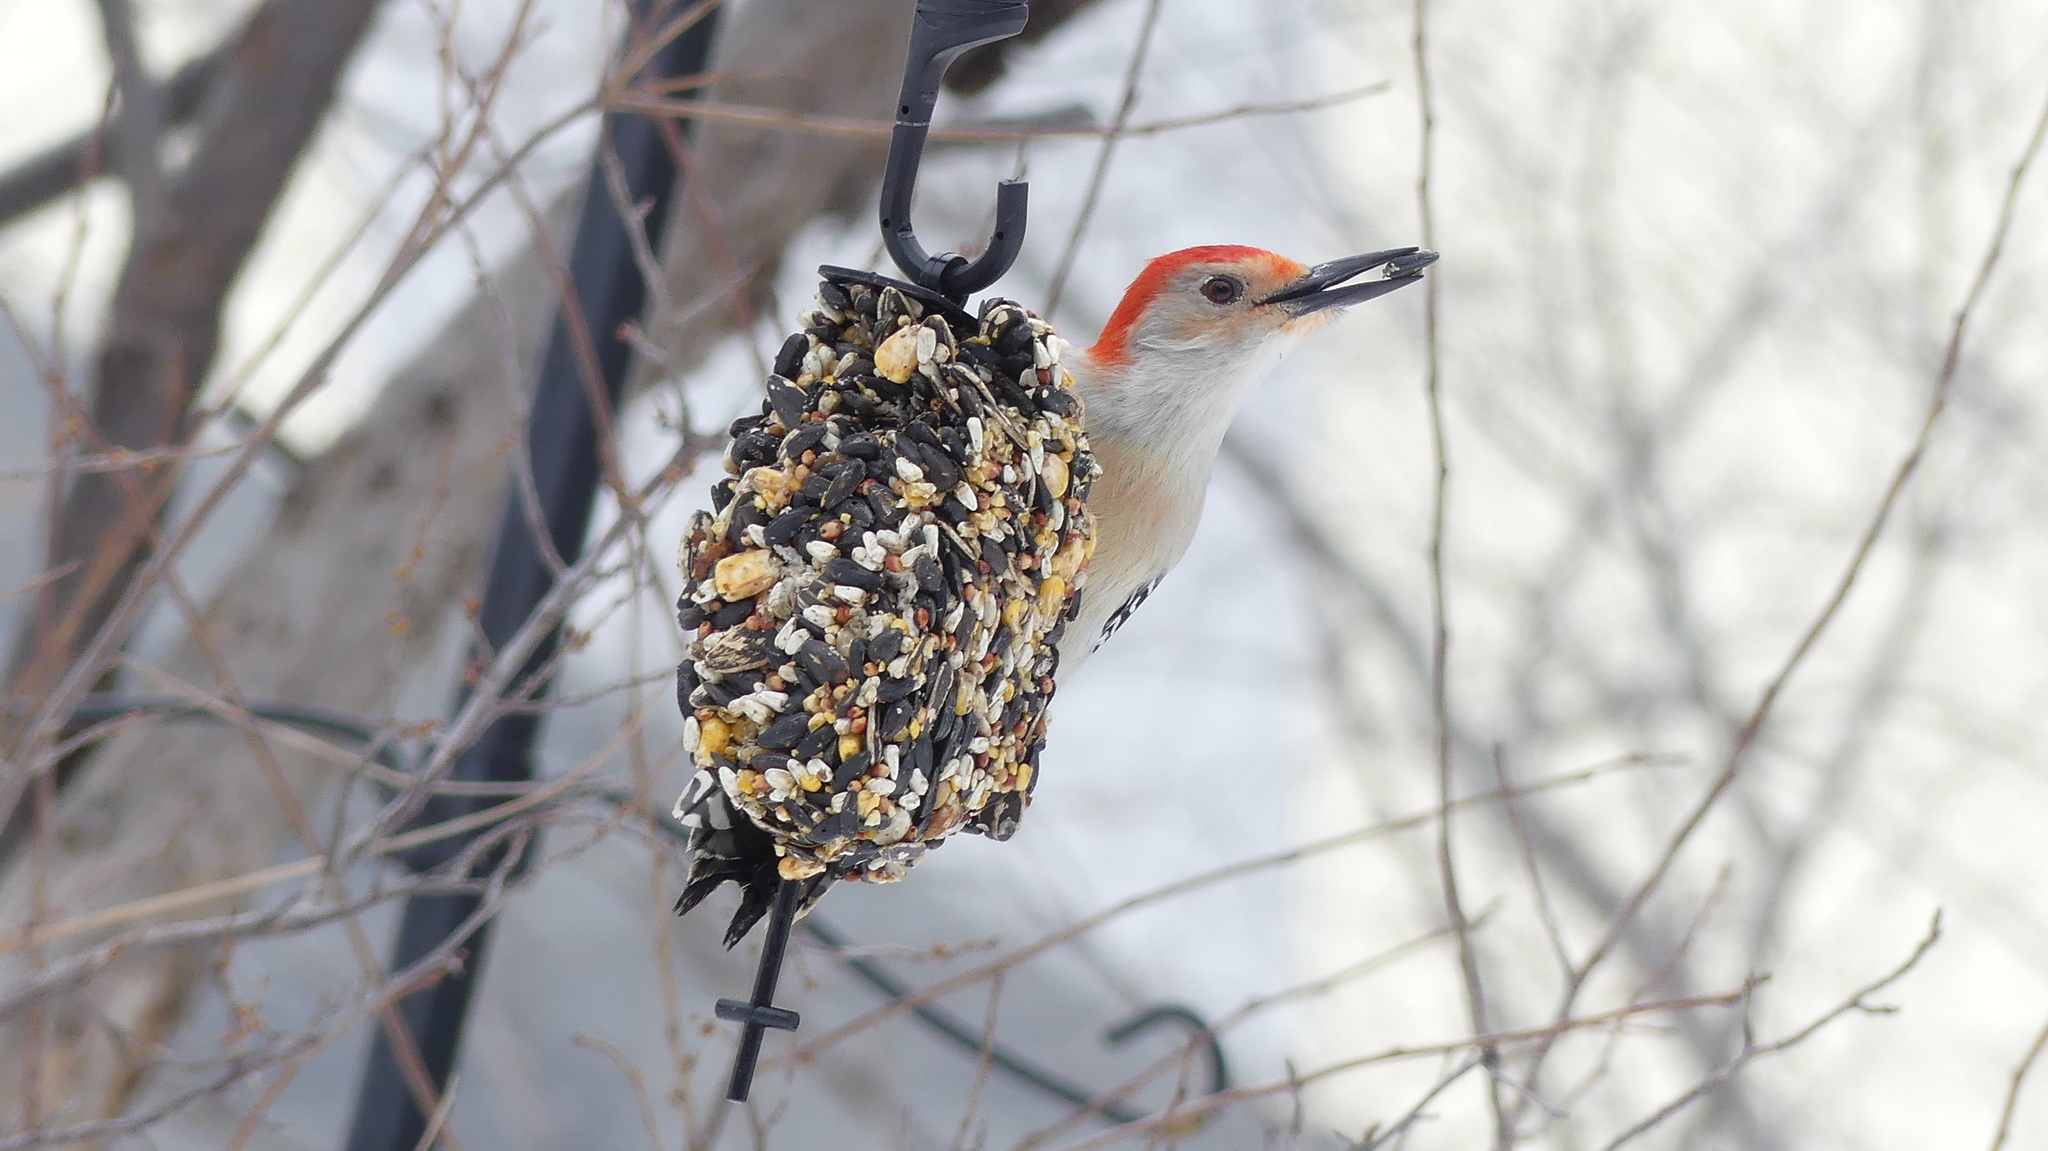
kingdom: Animalia
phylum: Chordata
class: Aves
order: Piciformes
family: Picidae
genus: Melanerpes
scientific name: Melanerpes carolinus
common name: Red-bellied woodpecker
